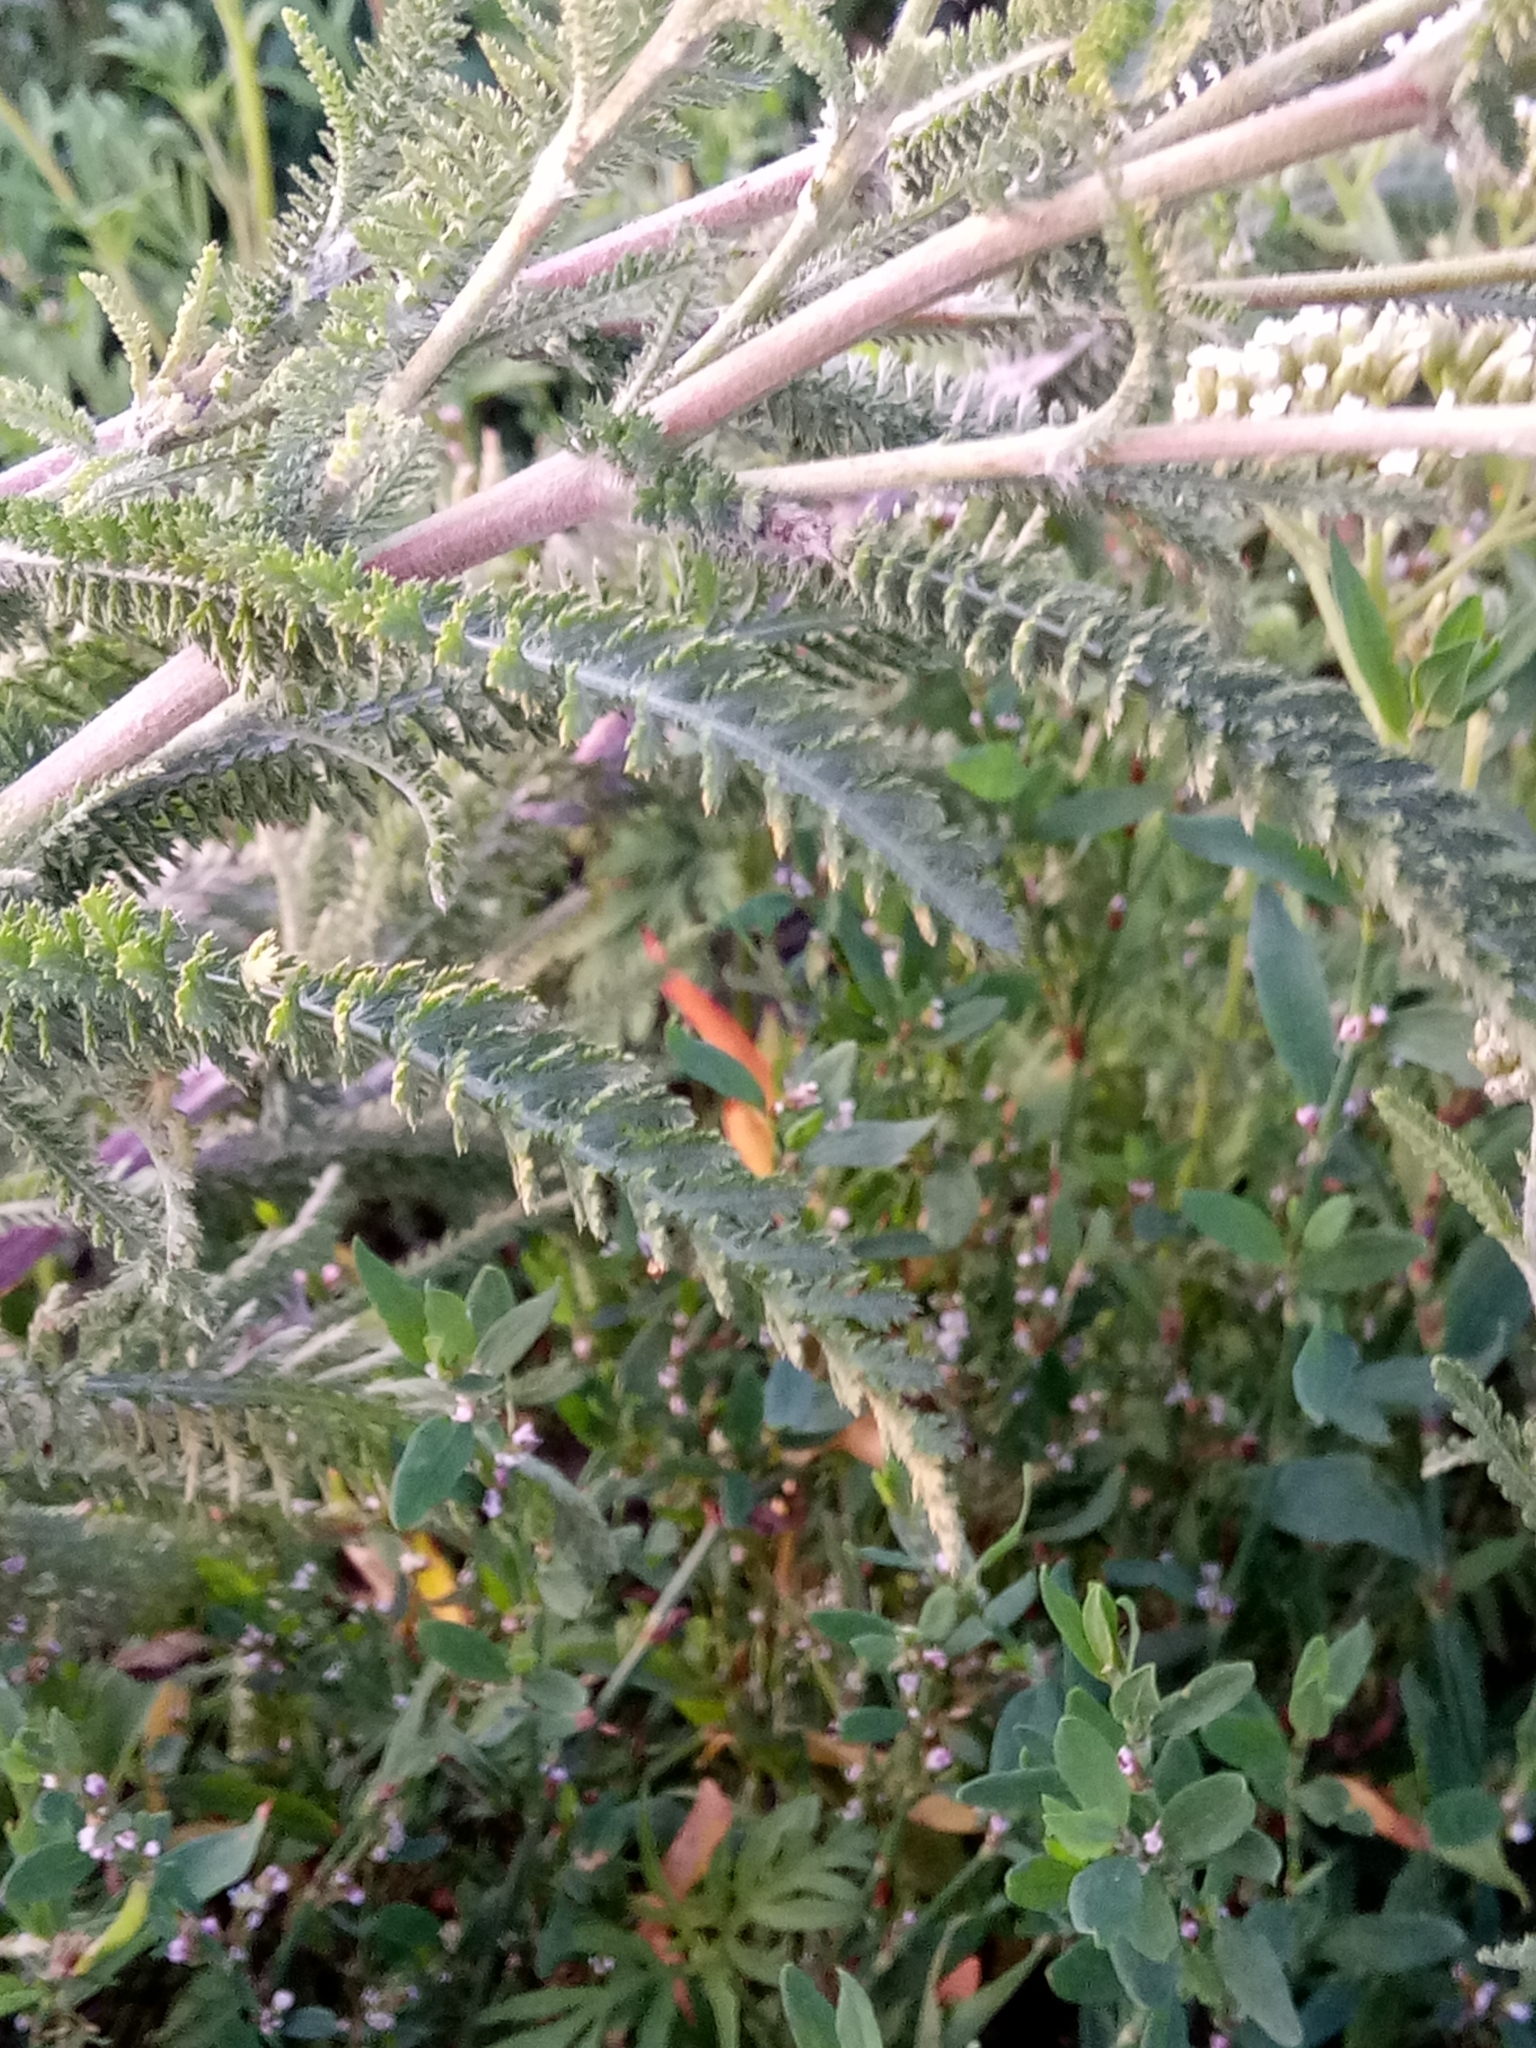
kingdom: Plantae
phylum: Tracheophyta
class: Magnoliopsida
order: Asterales
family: Asteraceae
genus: Achillea
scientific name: Achillea millefolium
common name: Yarrow
